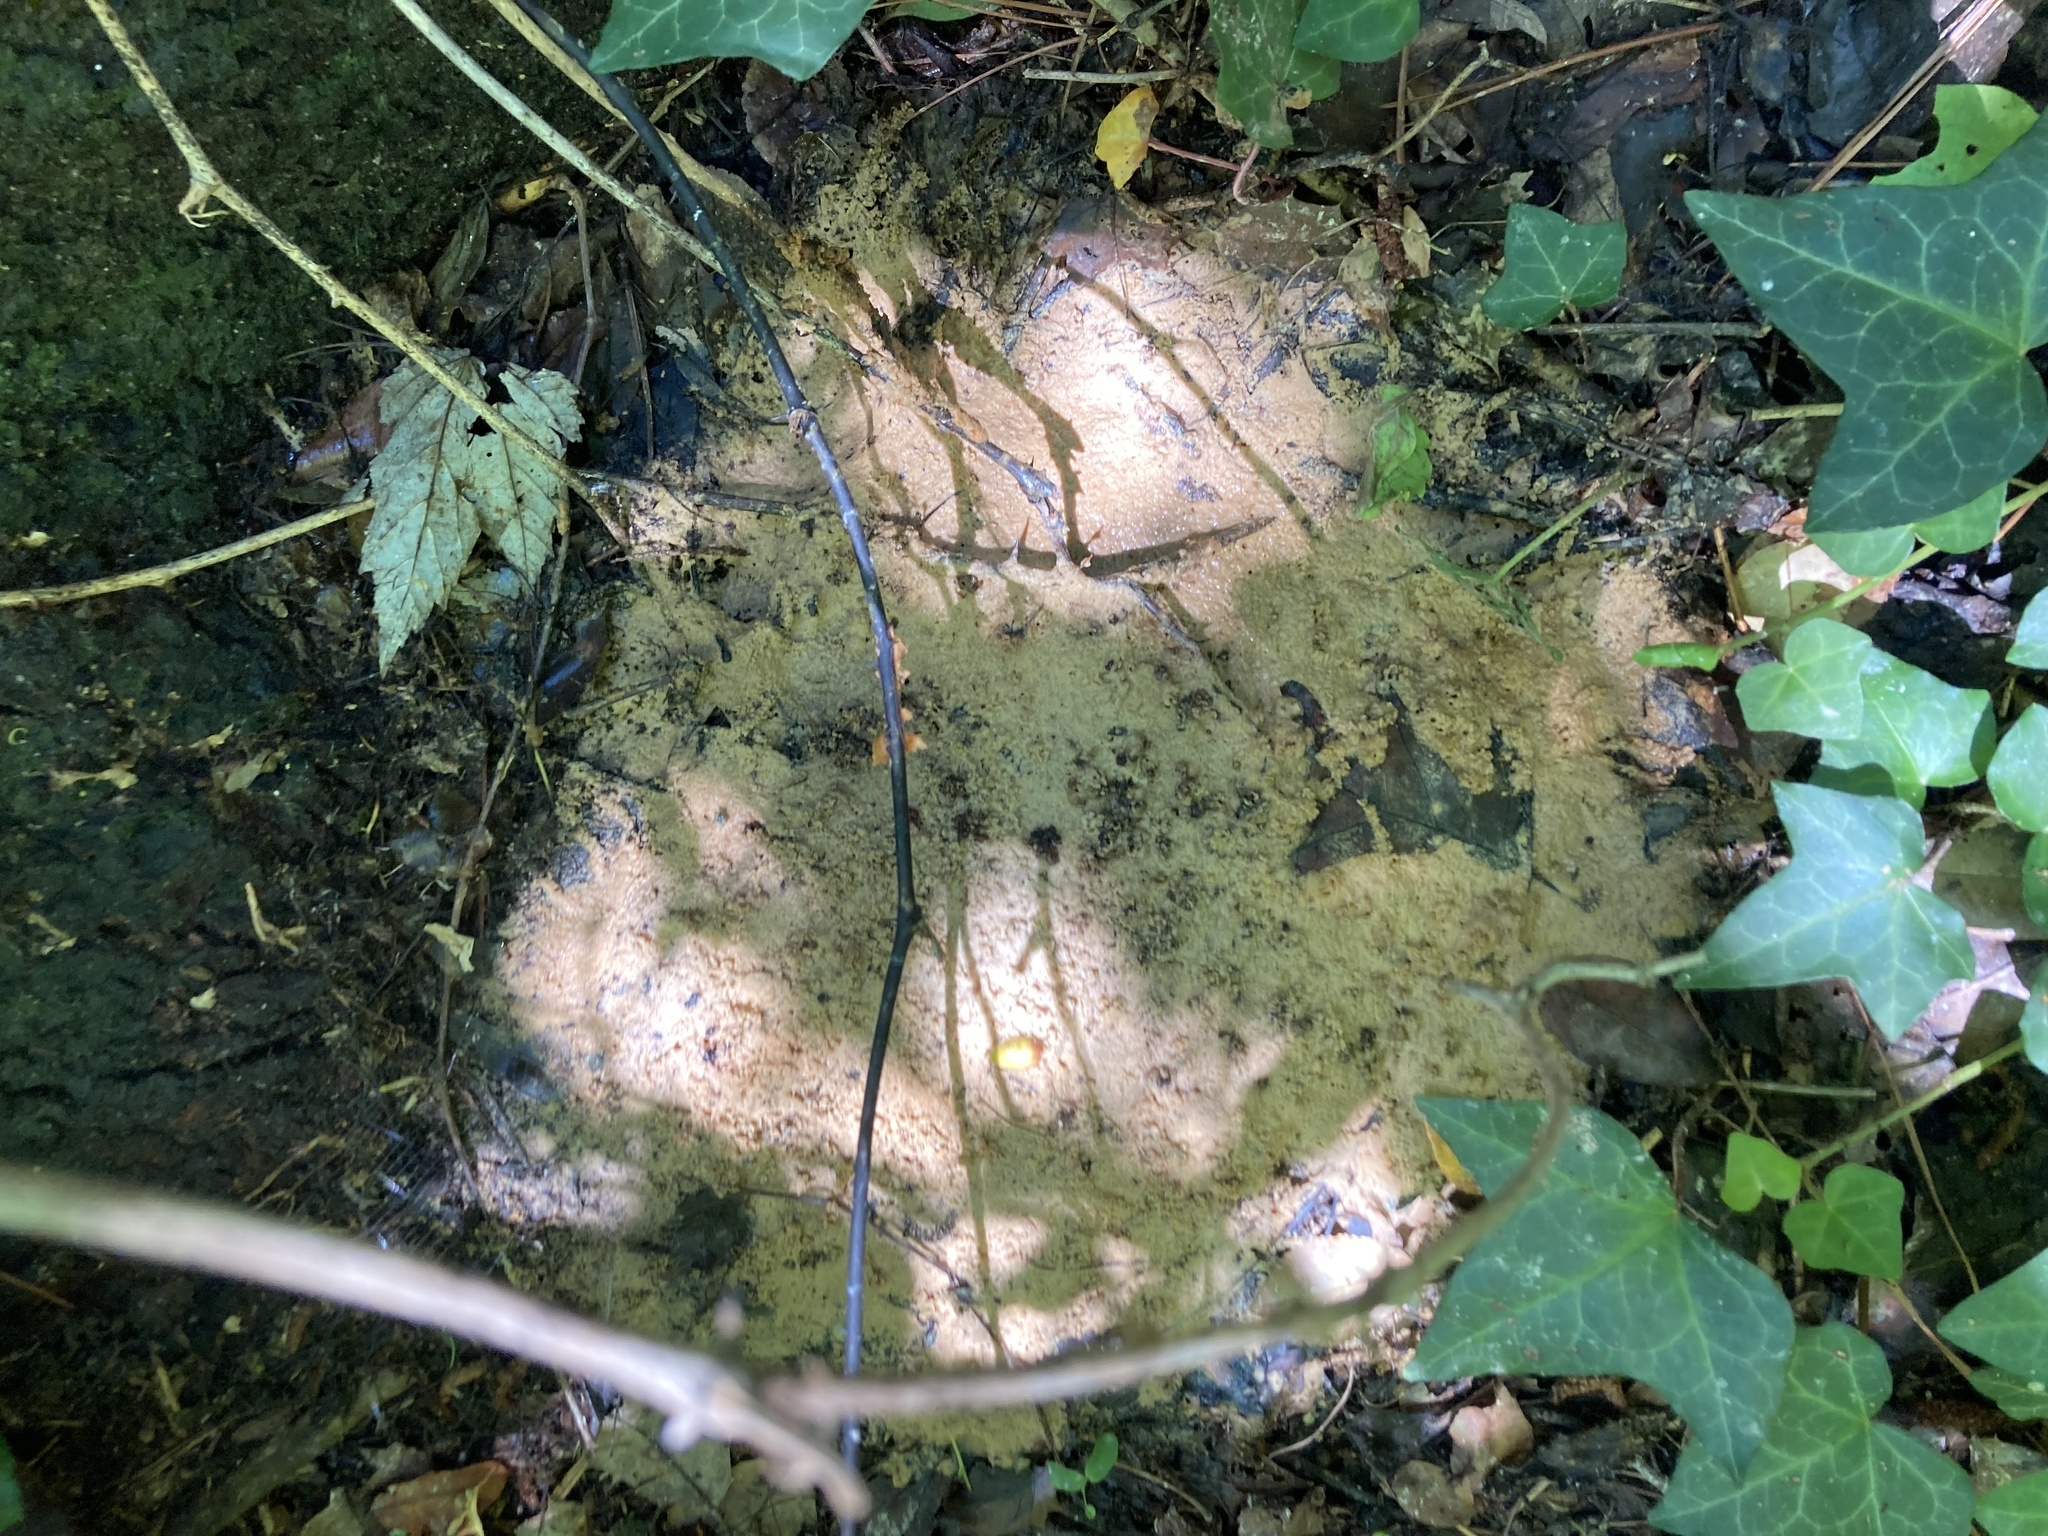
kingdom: Protozoa
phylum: Mycetozoa
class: Myxomycetes
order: Physarales
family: Physaraceae
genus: Fuligo
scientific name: Fuligo septica
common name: Dog vomit slime mold
